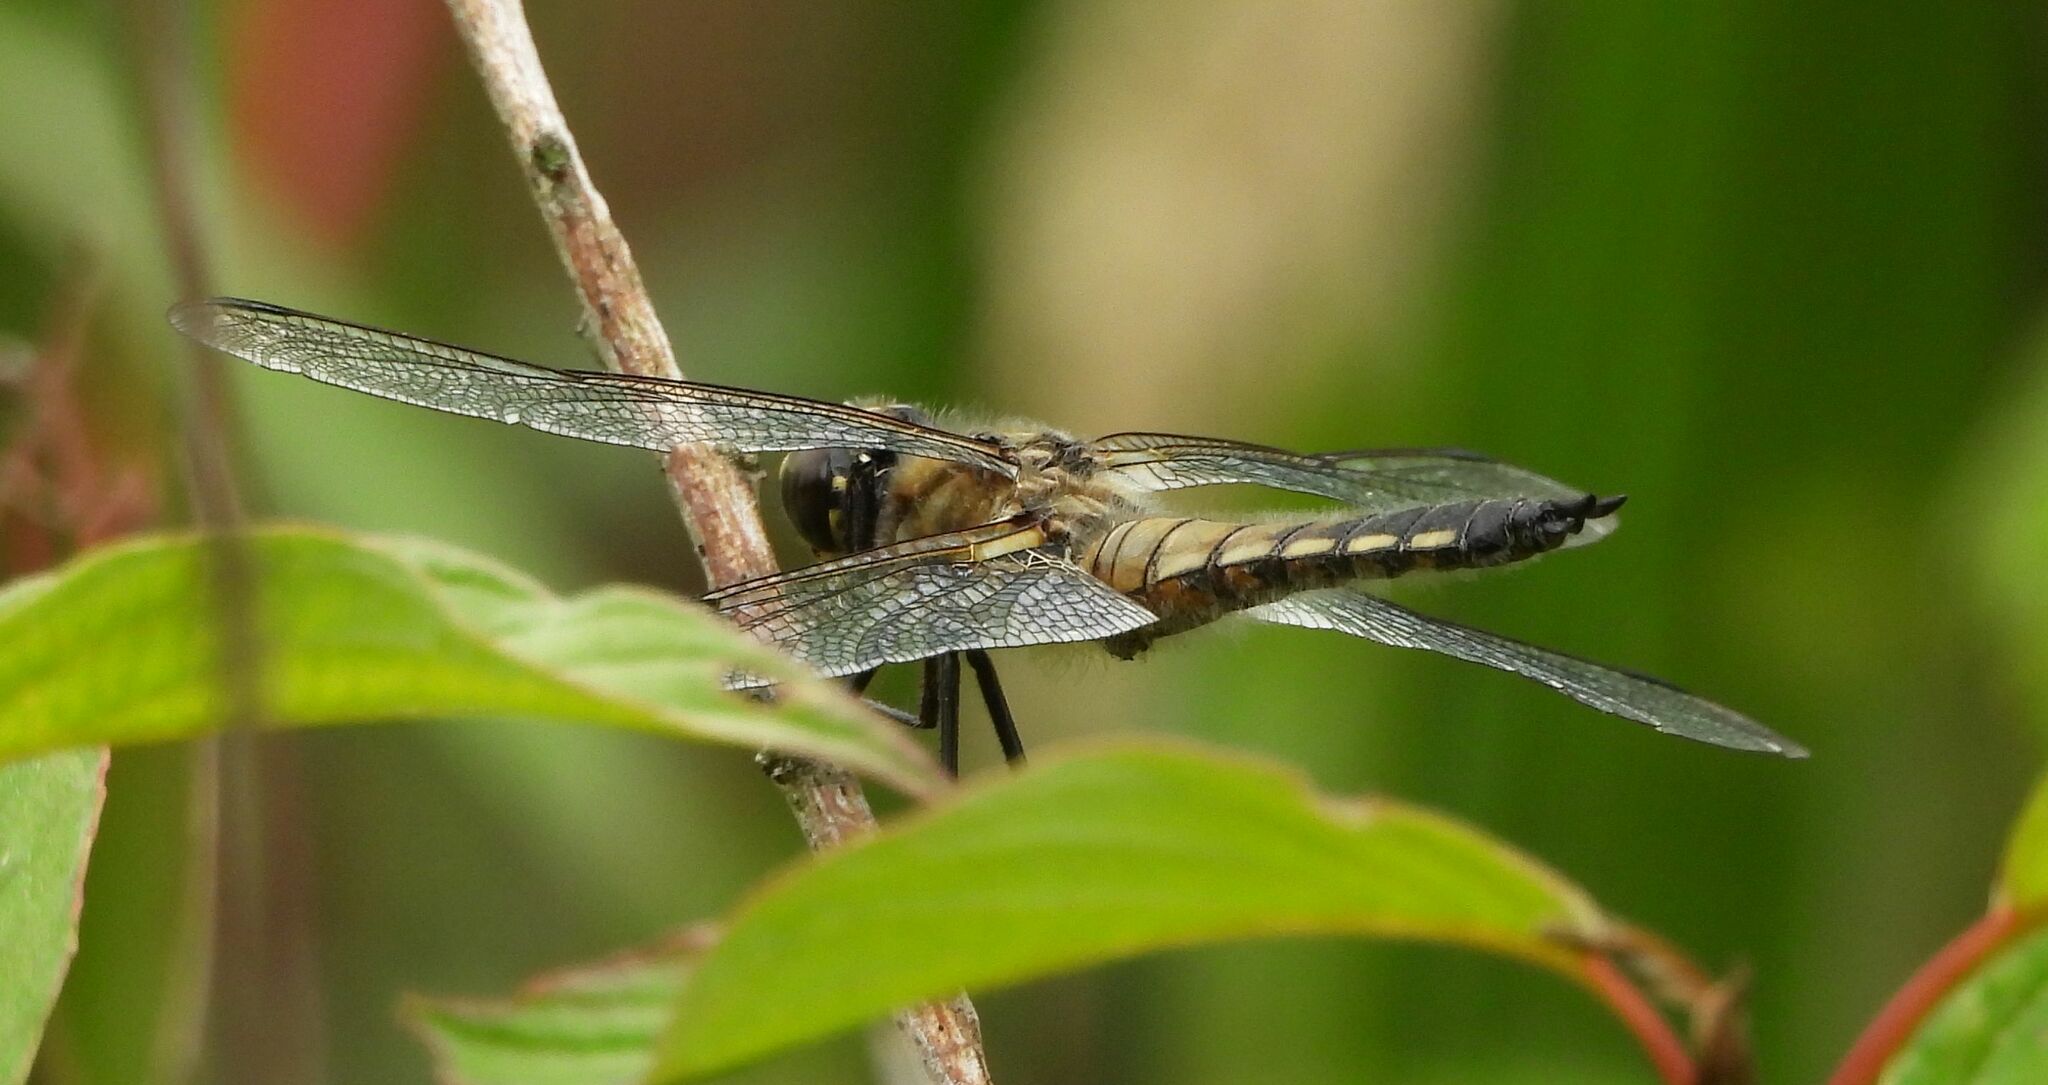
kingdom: Animalia
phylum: Arthropoda
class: Insecta
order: Odonata
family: Libellulidae
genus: Libellula
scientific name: Libellula quadrimaculata
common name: Four-spotted chaser
